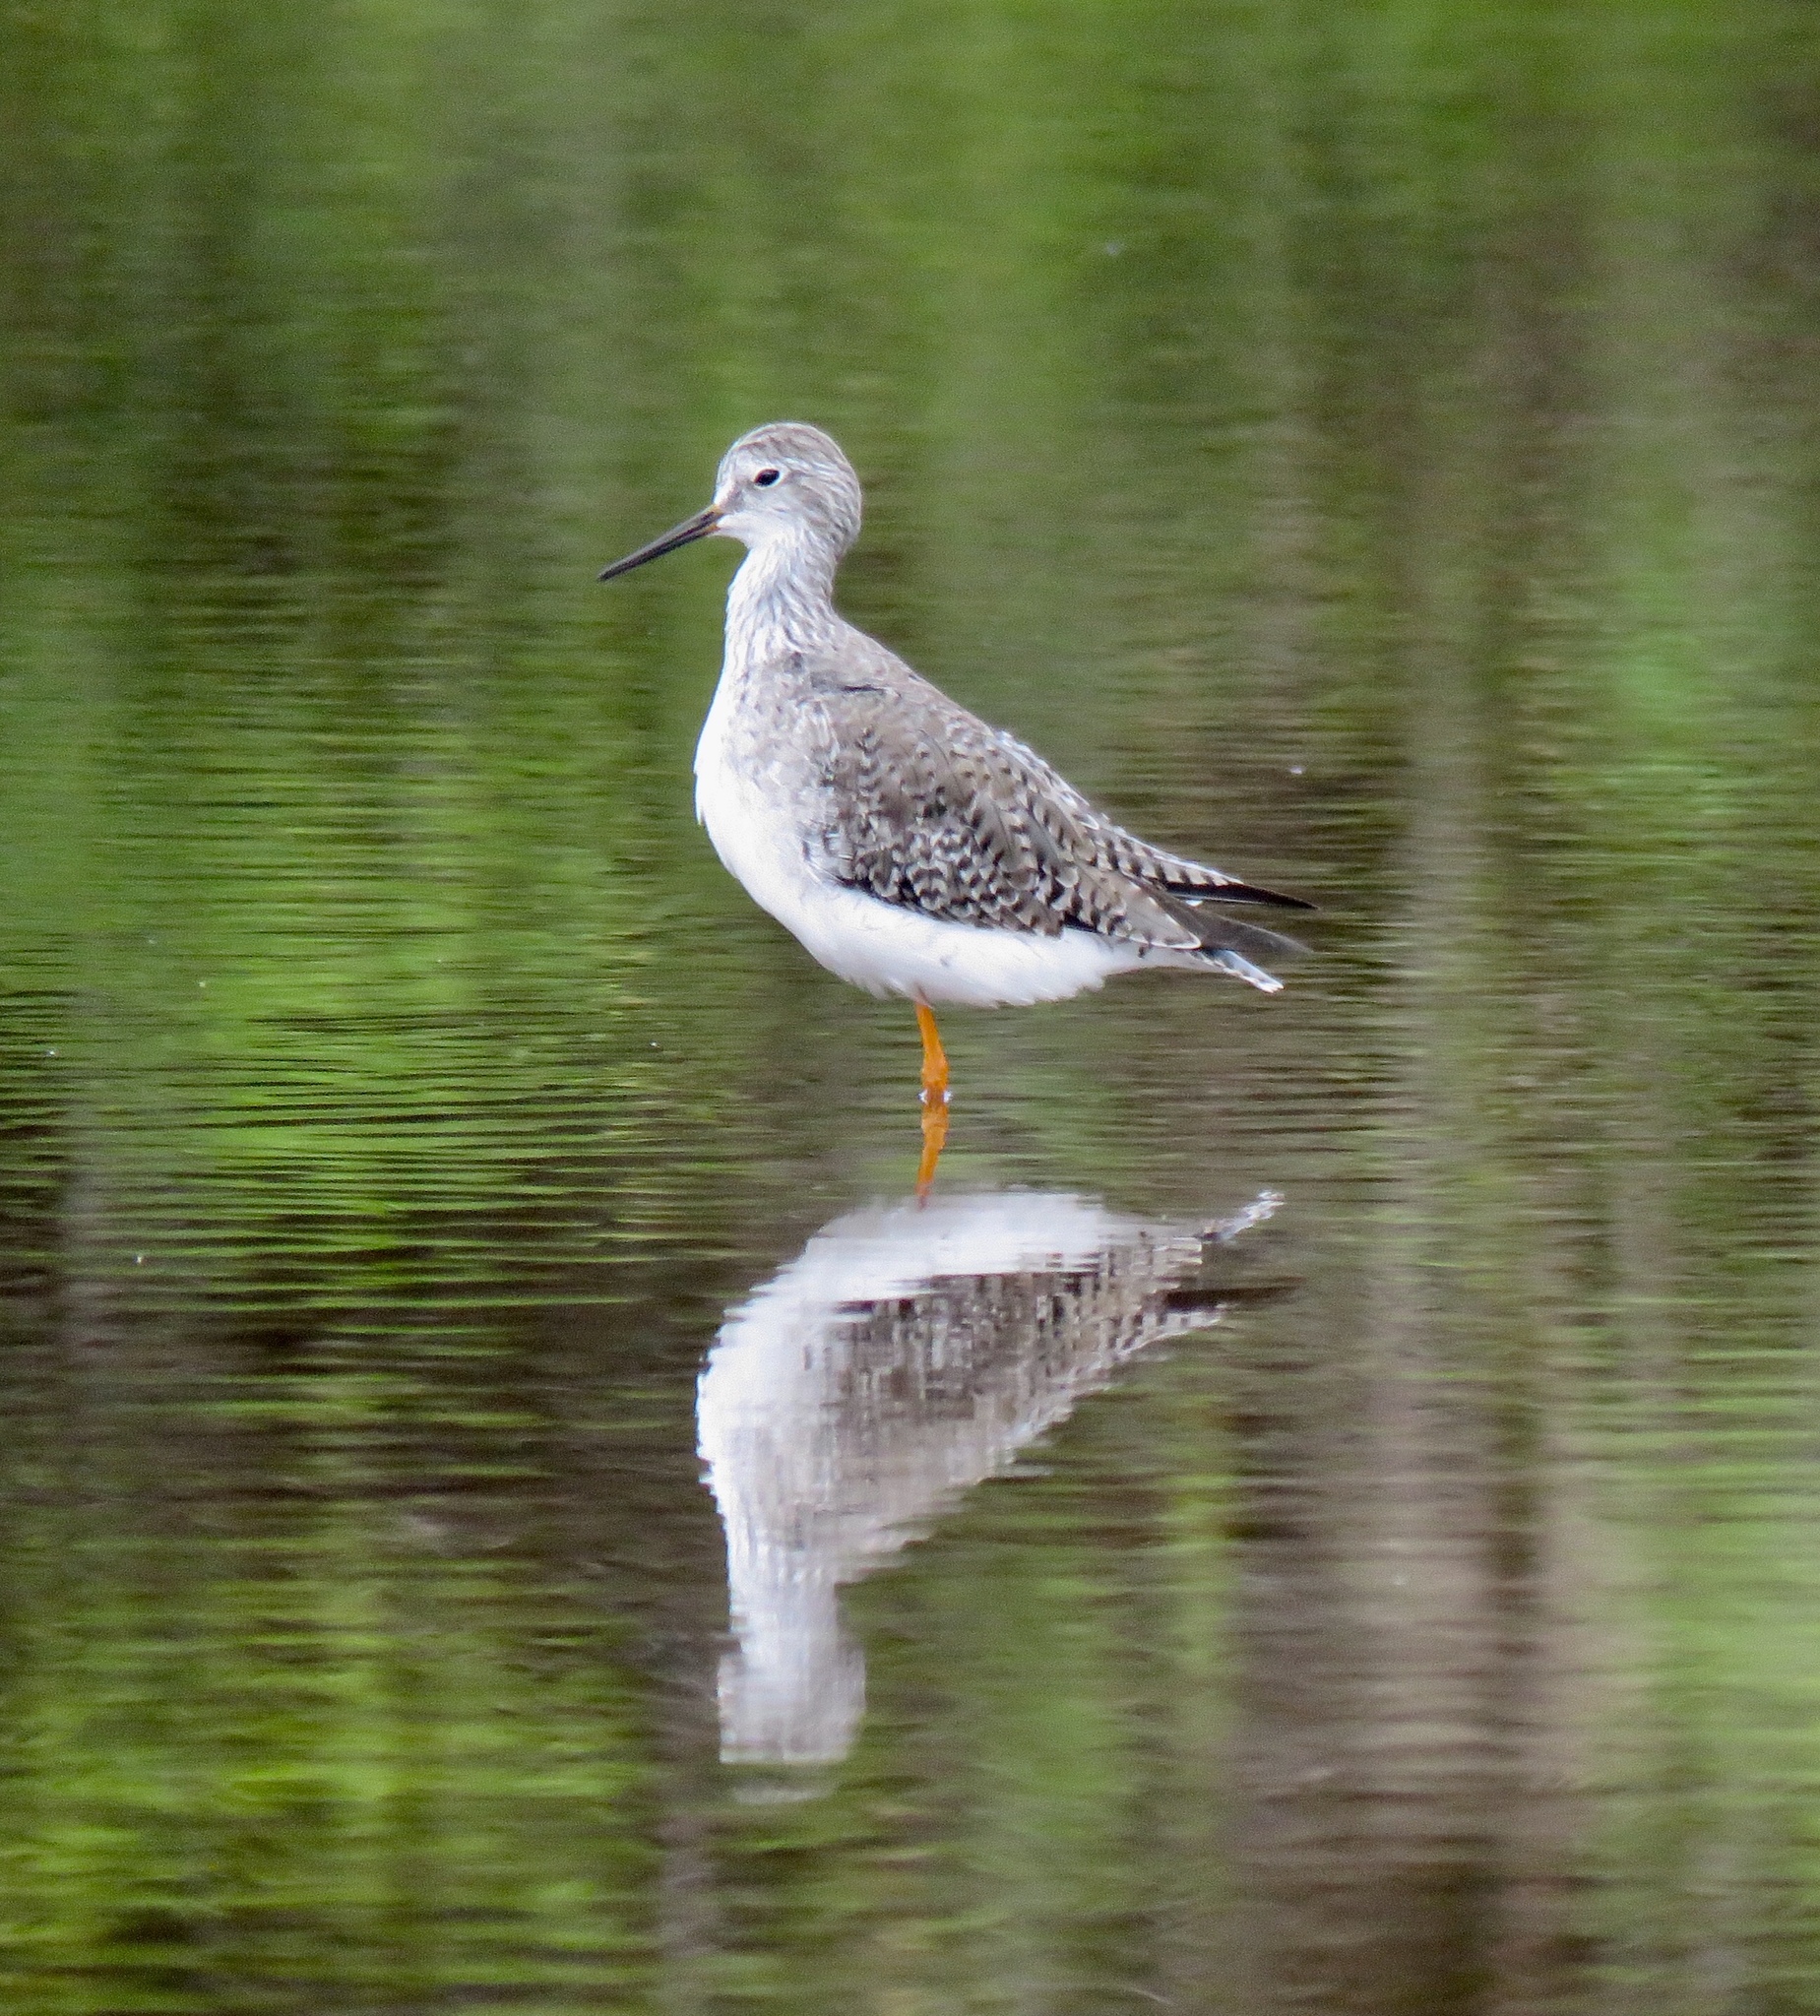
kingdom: Animalia
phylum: Chordata
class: Aves
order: Charadriiformes
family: Scolopacidae
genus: Tringa
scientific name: Tringa flavipes
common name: Lesser yellowlegs
